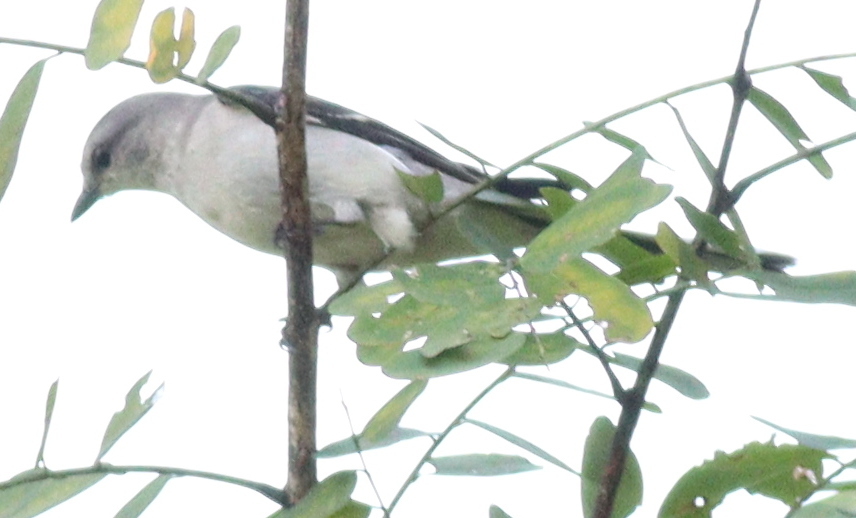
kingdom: Animalia
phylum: Chordata
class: Aves
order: Passeriformes
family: Campephagidae
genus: Pericrocotus
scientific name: Pericrocotus divaricatus
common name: Ashy minivet
